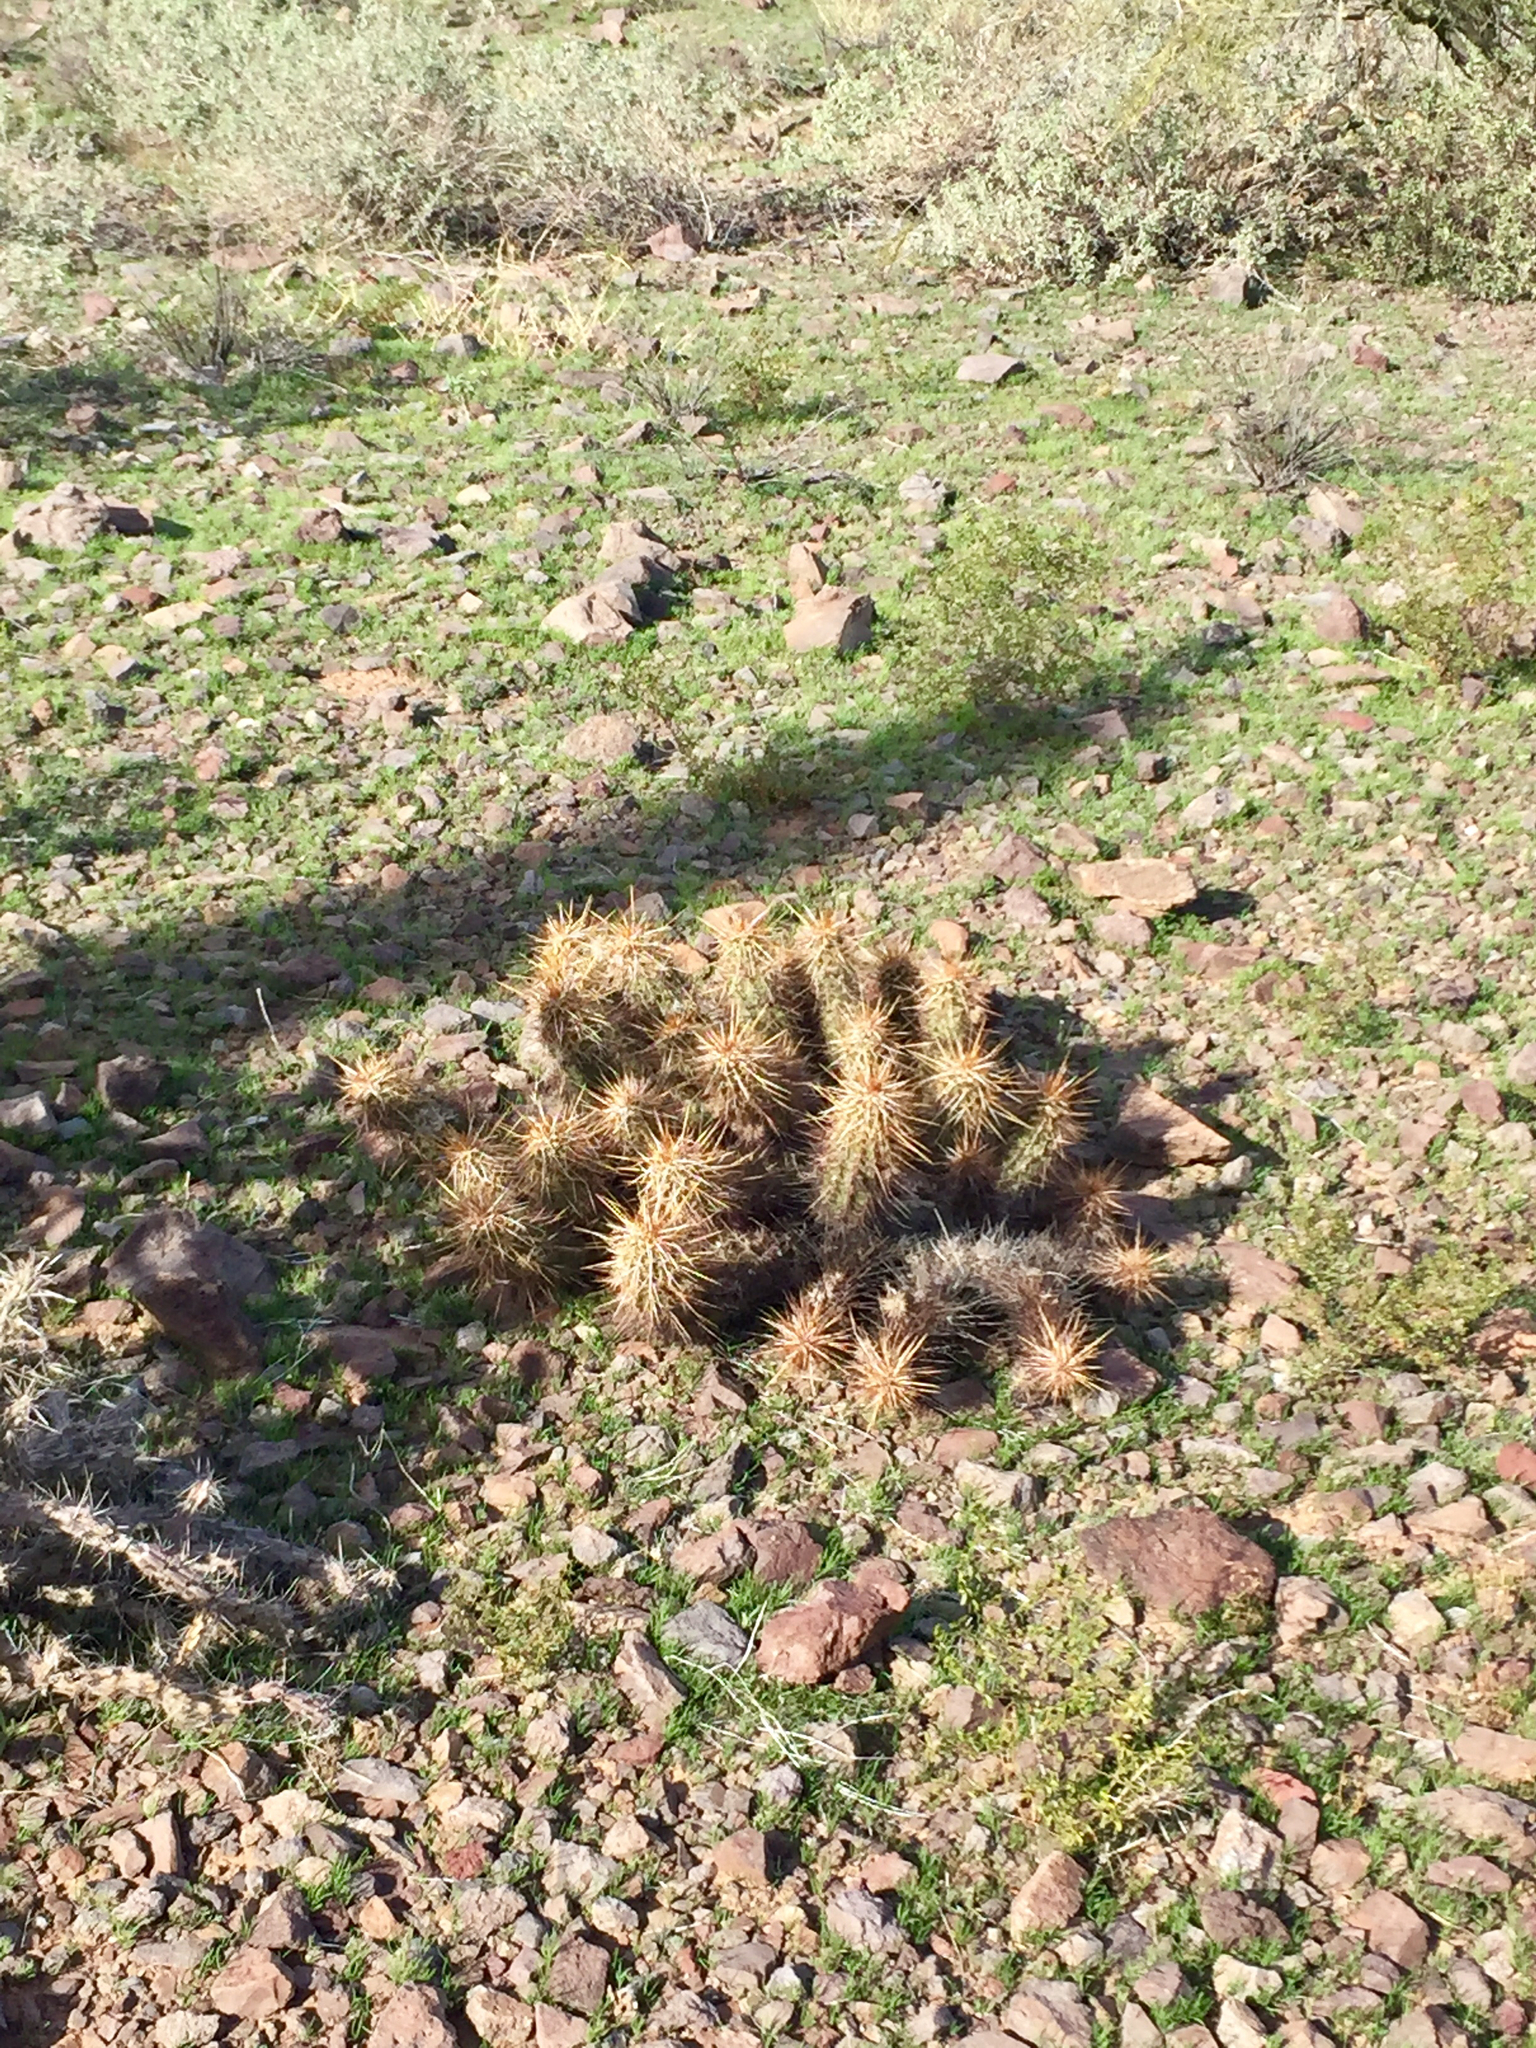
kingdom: Plantae
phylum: Tracheophyta
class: Magnoliopsida
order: Caryophyllales
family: Cactaceae
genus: Echinocereus
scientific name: Echinocereus engelmannii
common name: Engelmann's hedgehog cactus
